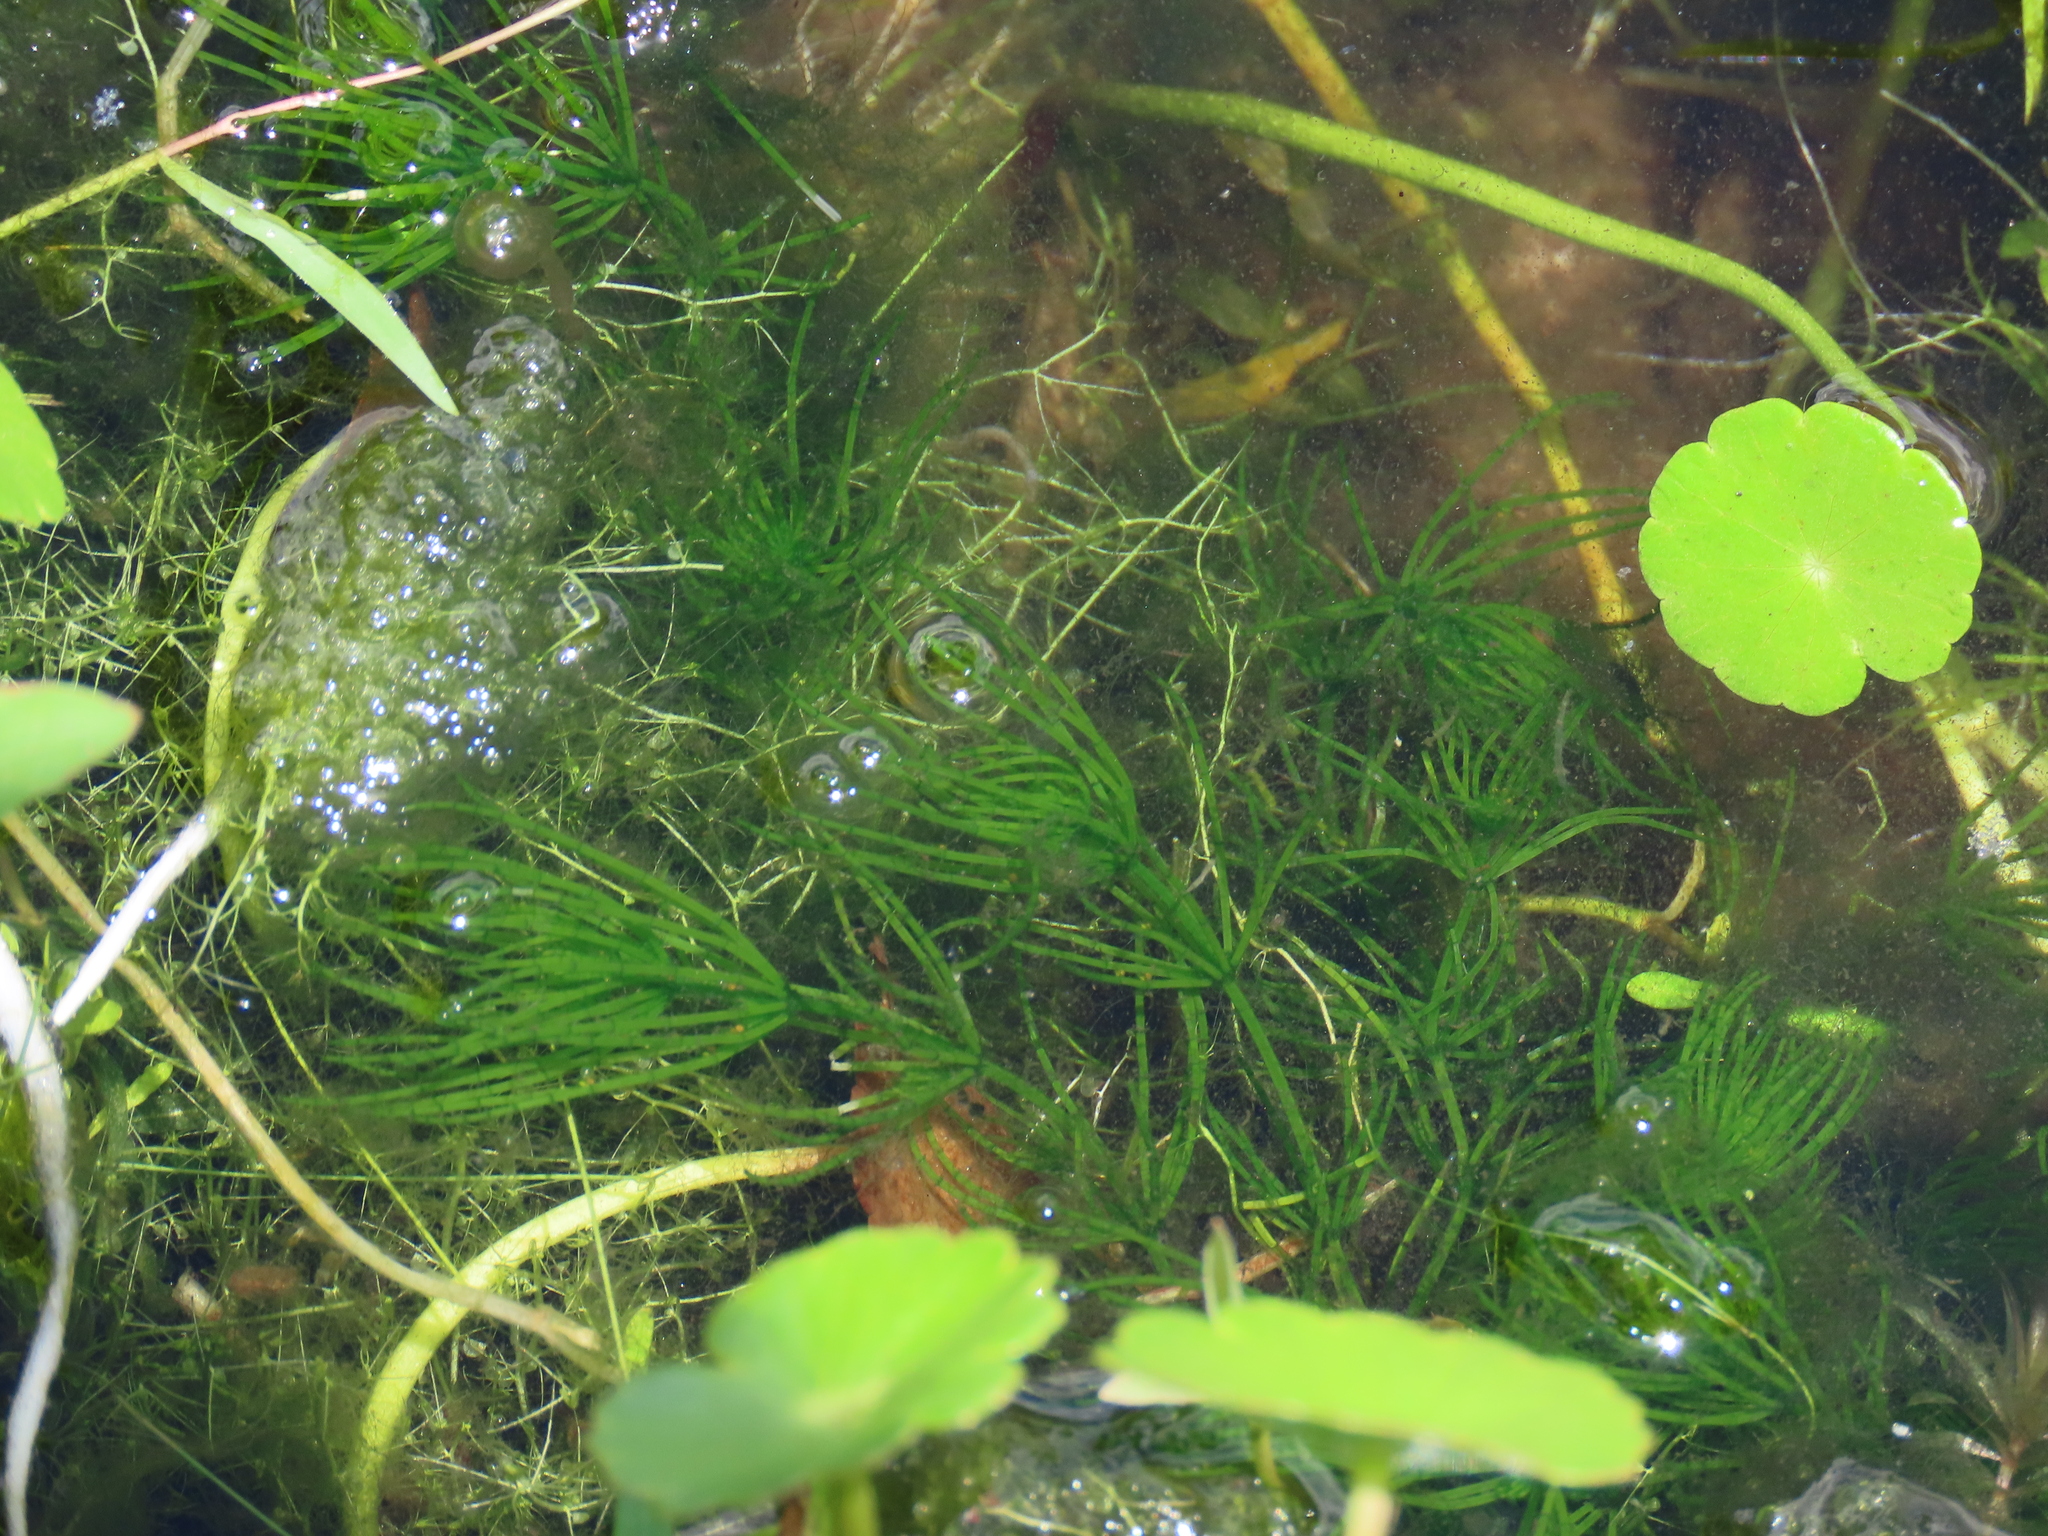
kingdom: Plantae
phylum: Tracheophyta
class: Magnoliopsida
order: Ceratophyllales
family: Ceratophyllaceae
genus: Ceratophyllum
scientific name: Ceratophyllum demersum
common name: Rigid hornwort
